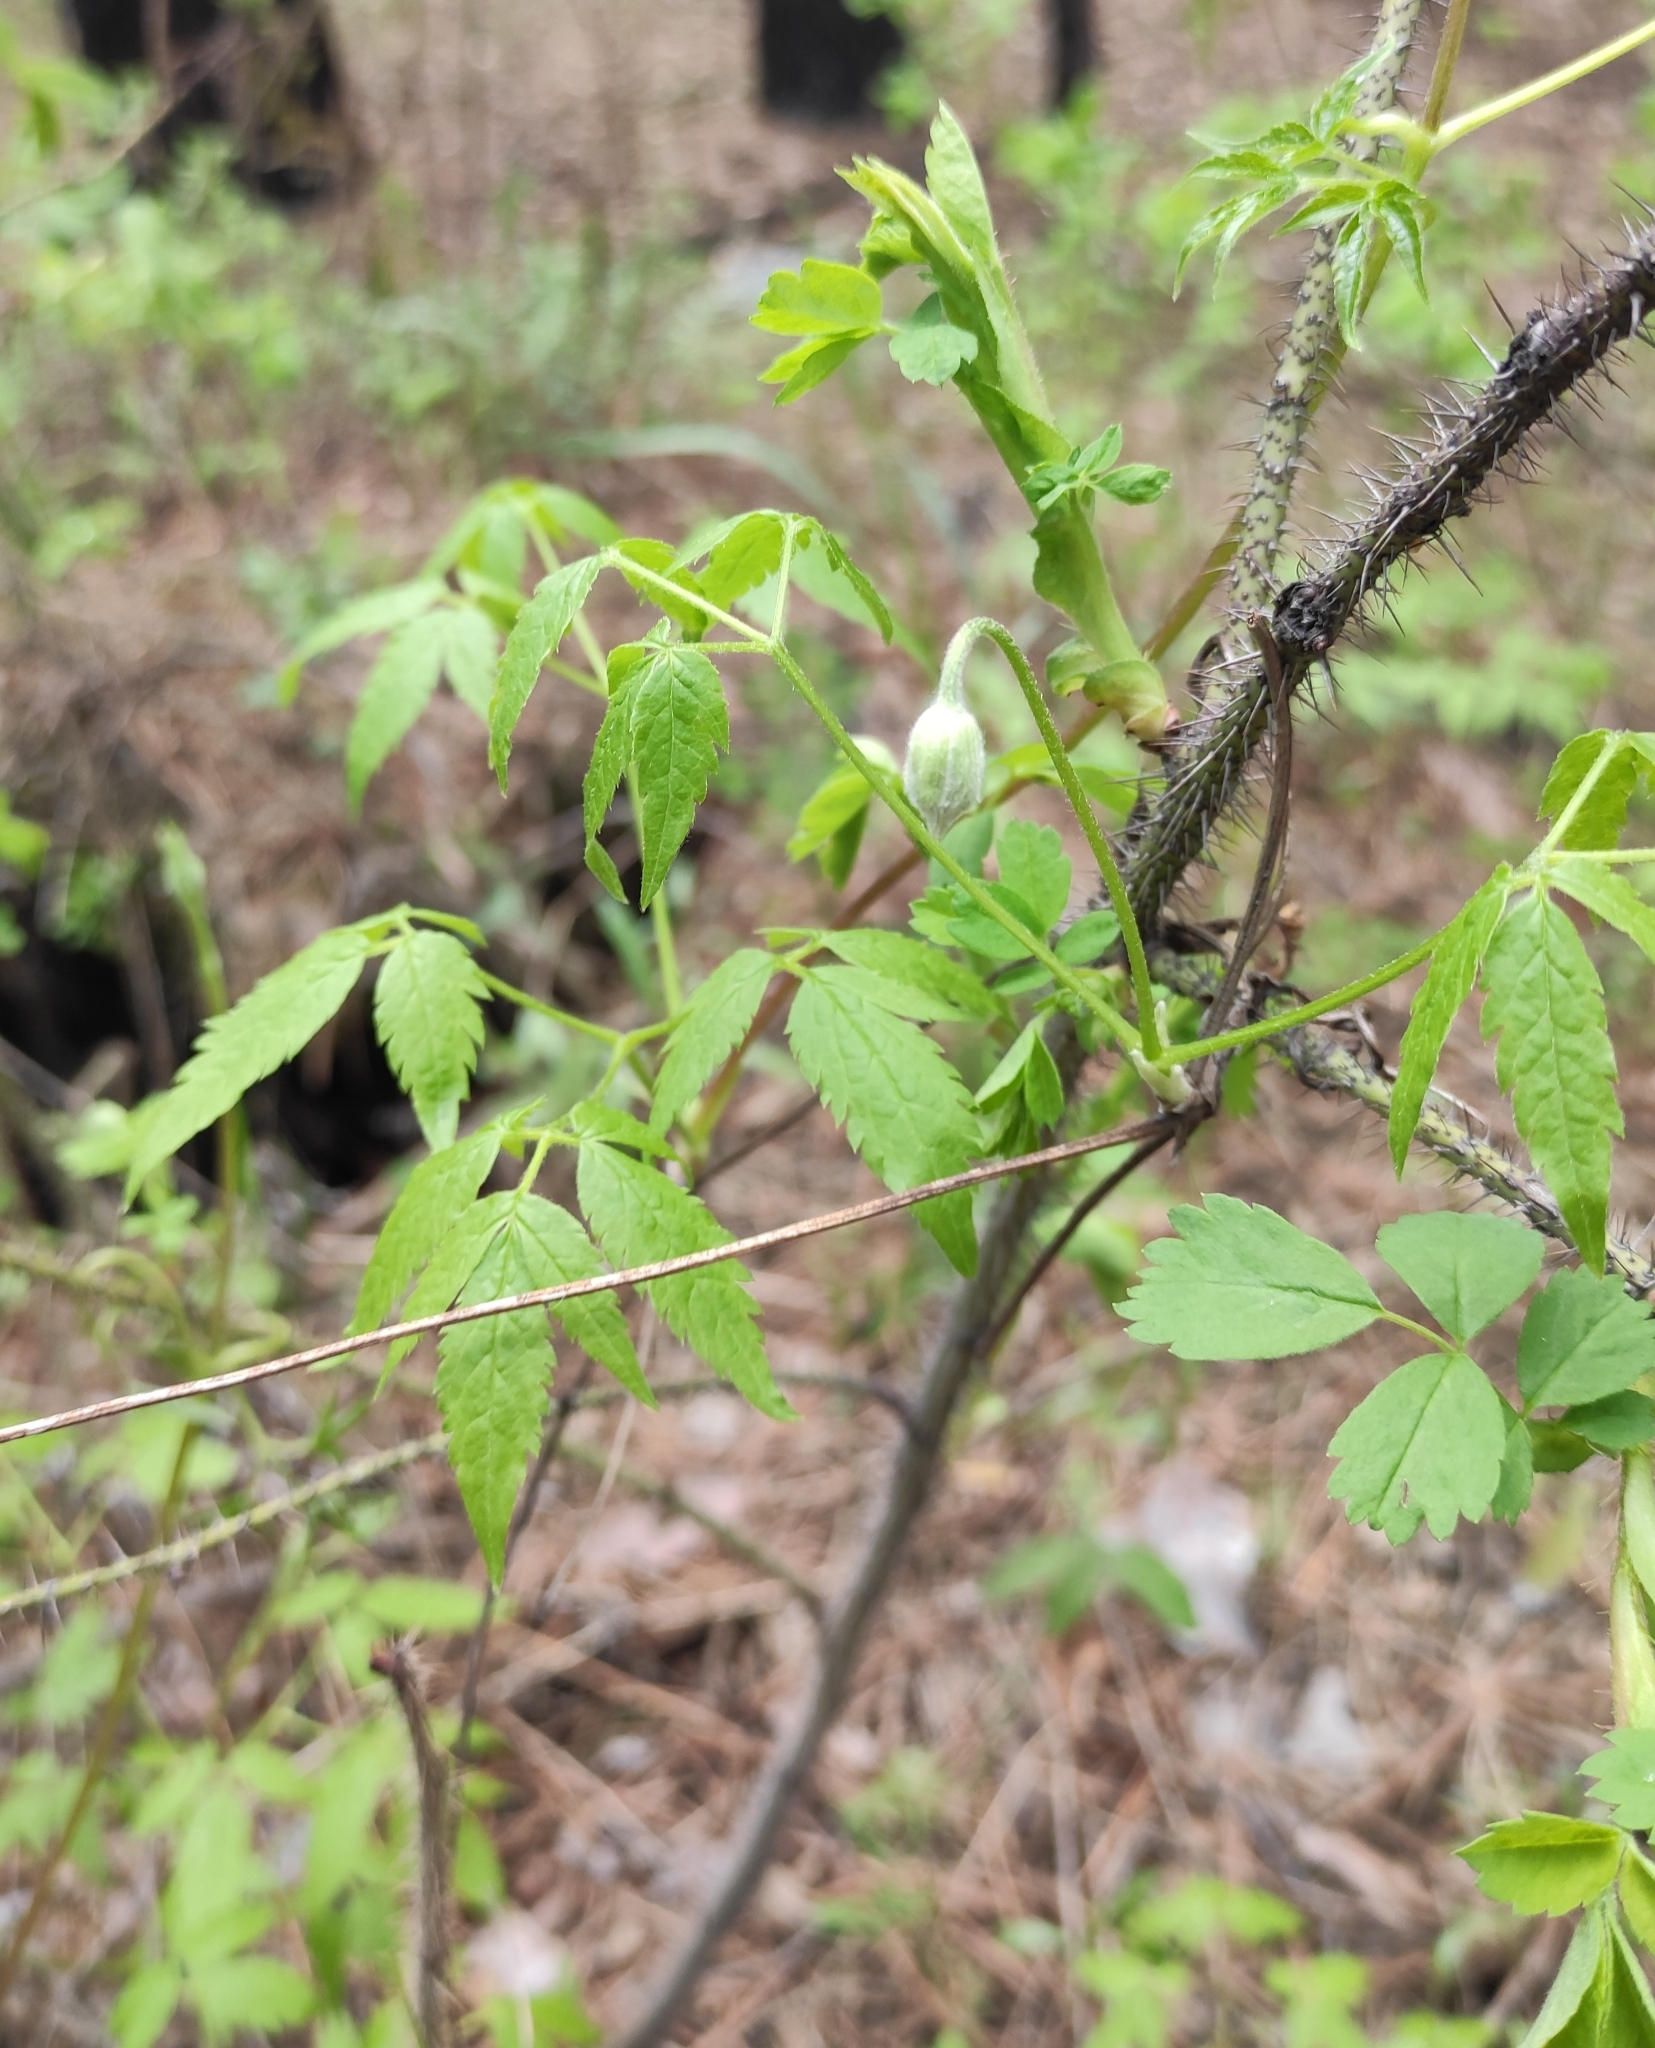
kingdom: Plantae
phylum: Tracheophyta
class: Magnoliopsida
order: Ranunculales
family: Ranunculaceae
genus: Clematis
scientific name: Clematis sibirica
